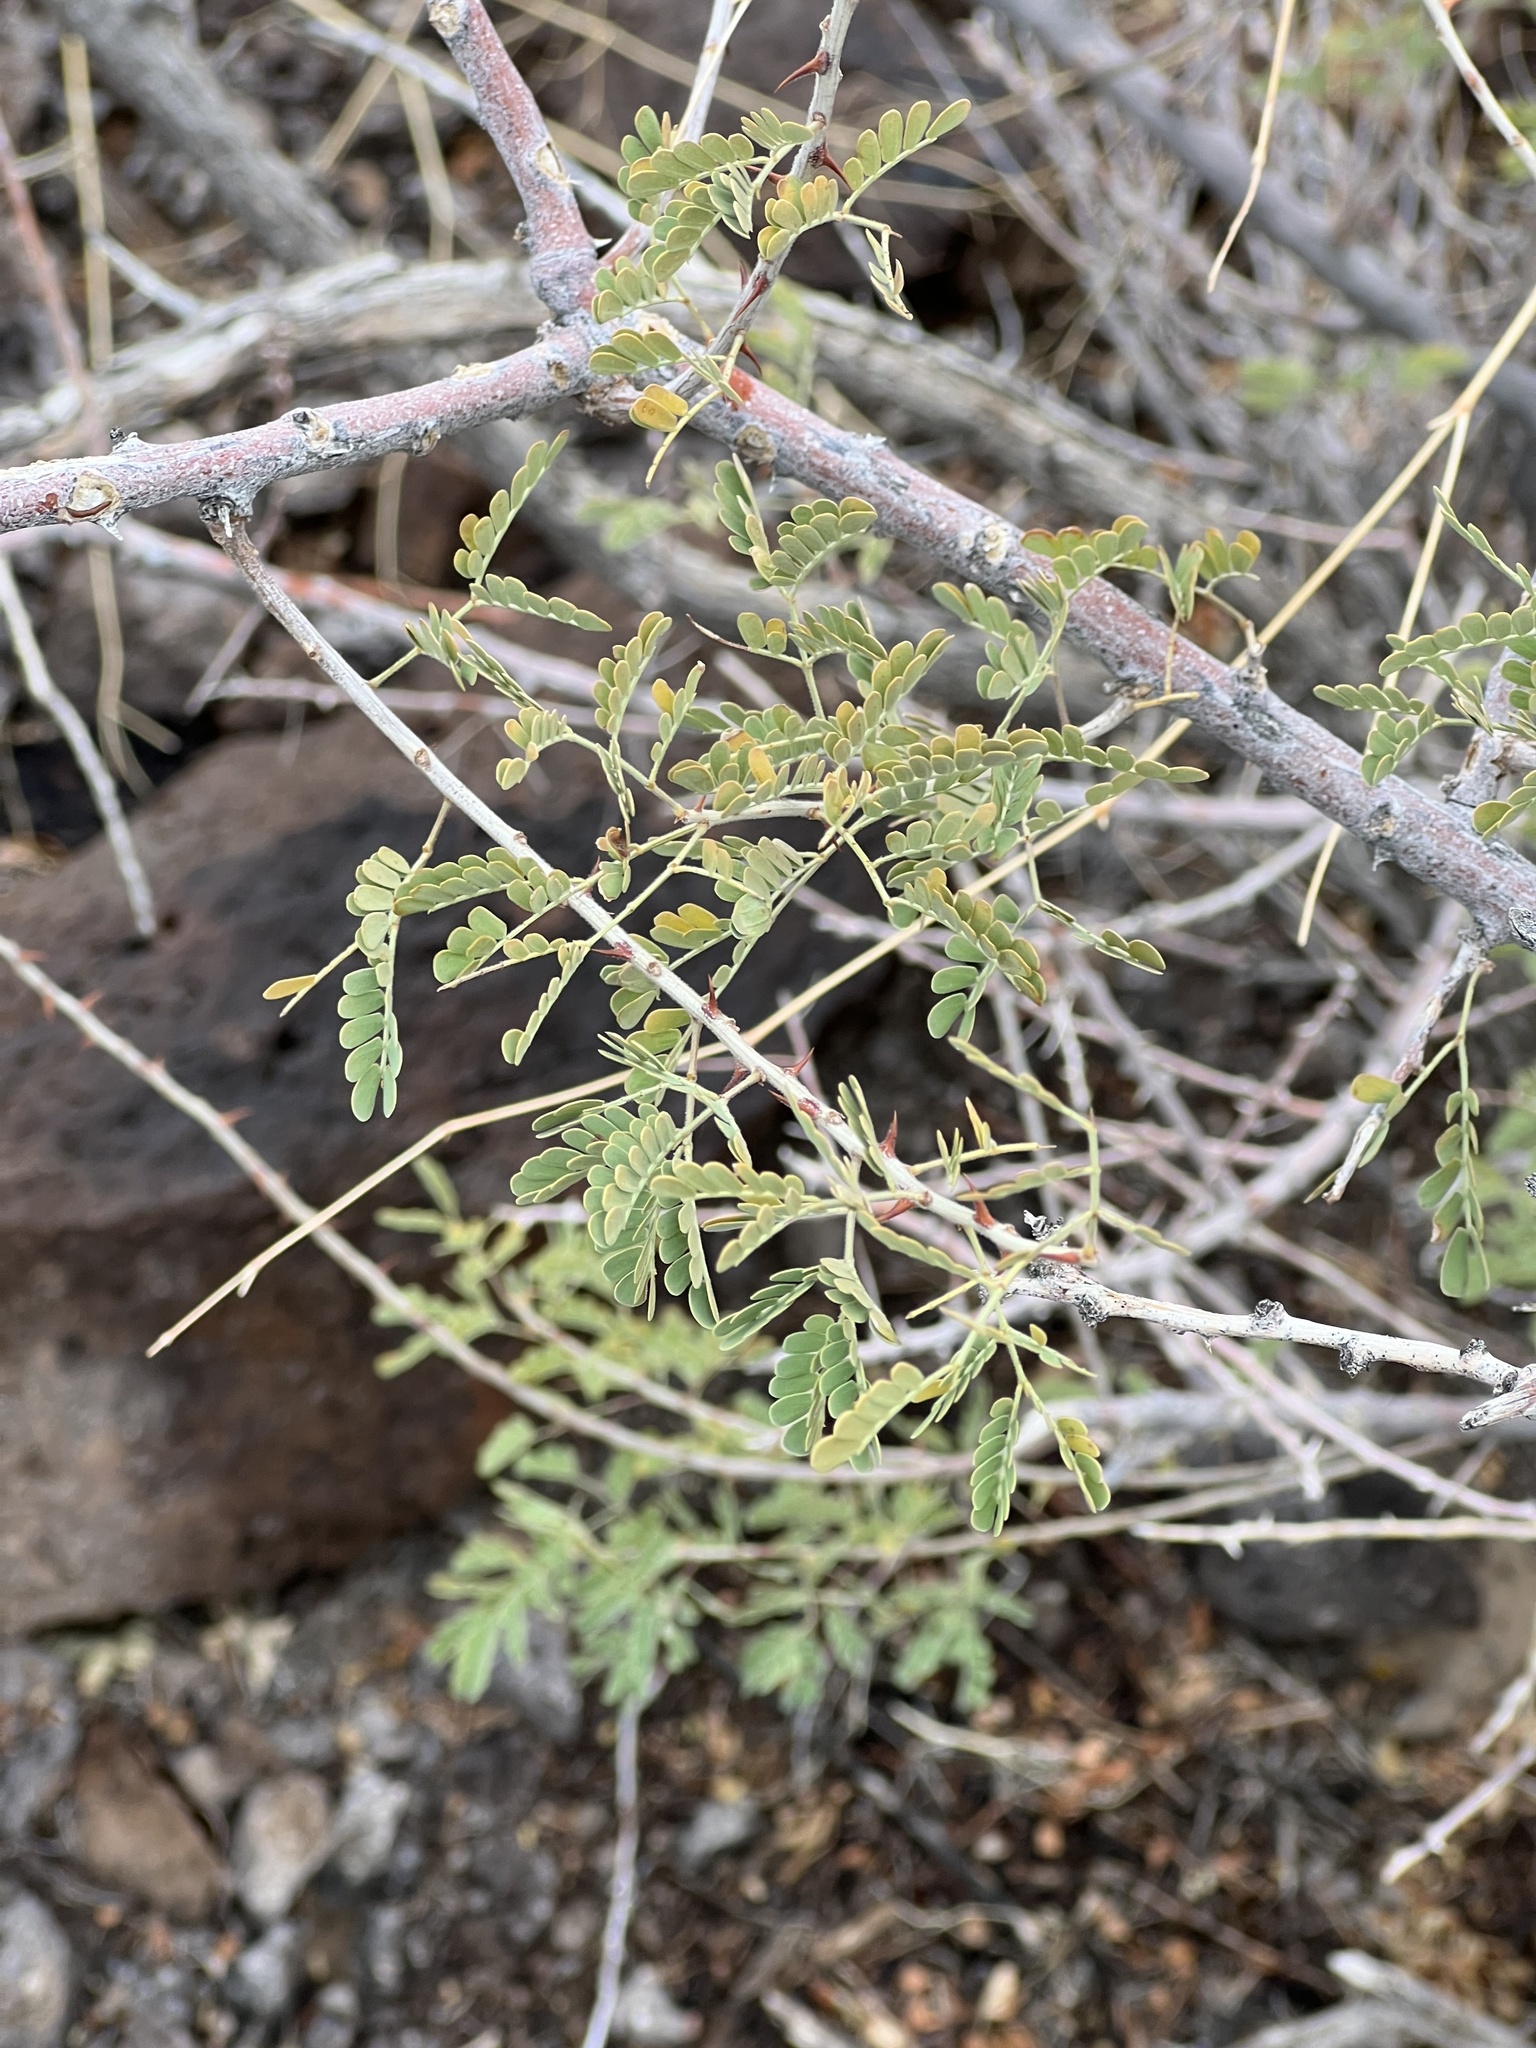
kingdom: Plantae
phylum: Tracheophyta
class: Magnoliopsida
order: Fabales
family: Fabaceae
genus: Senegalia
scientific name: Senegalia greggii
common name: Texas-mimosa
